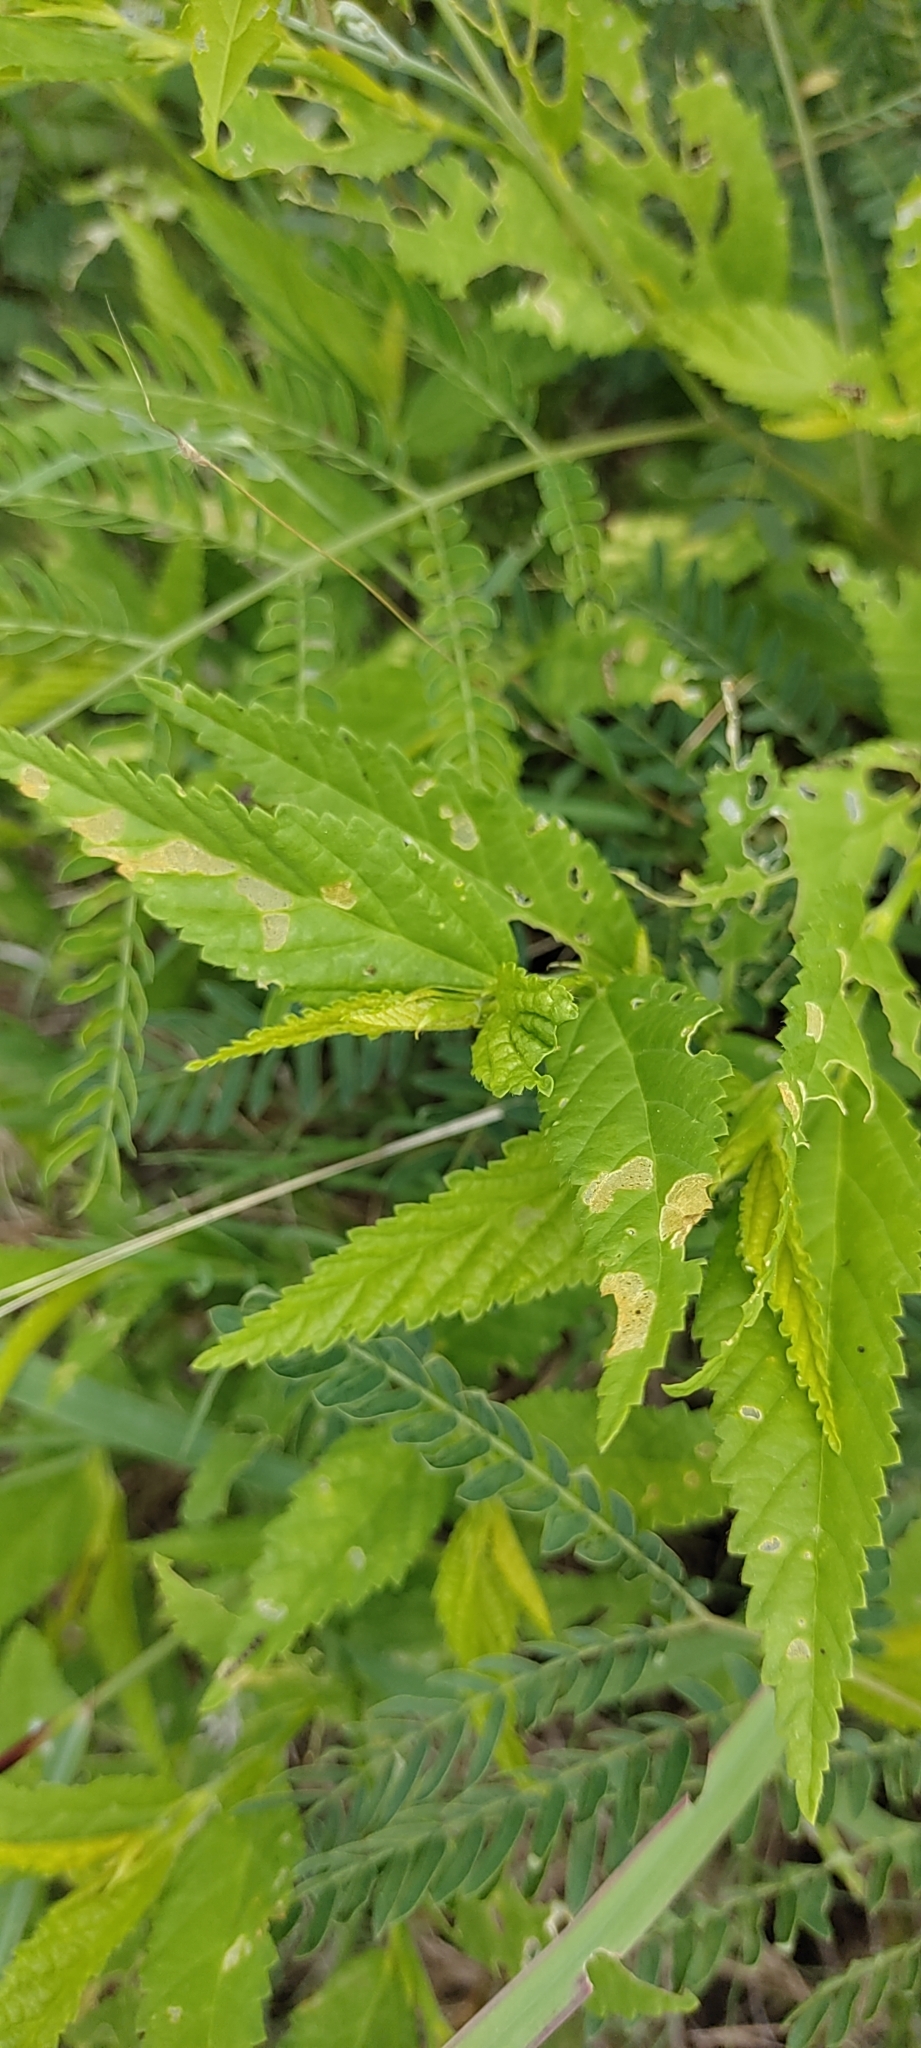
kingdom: Plantae
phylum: Tracheophyta
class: Magnoliopsida
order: Malvales
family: Malvaceae
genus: Malvastrum
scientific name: Malvastrum coromandelianum
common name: Threelobe false mallow
